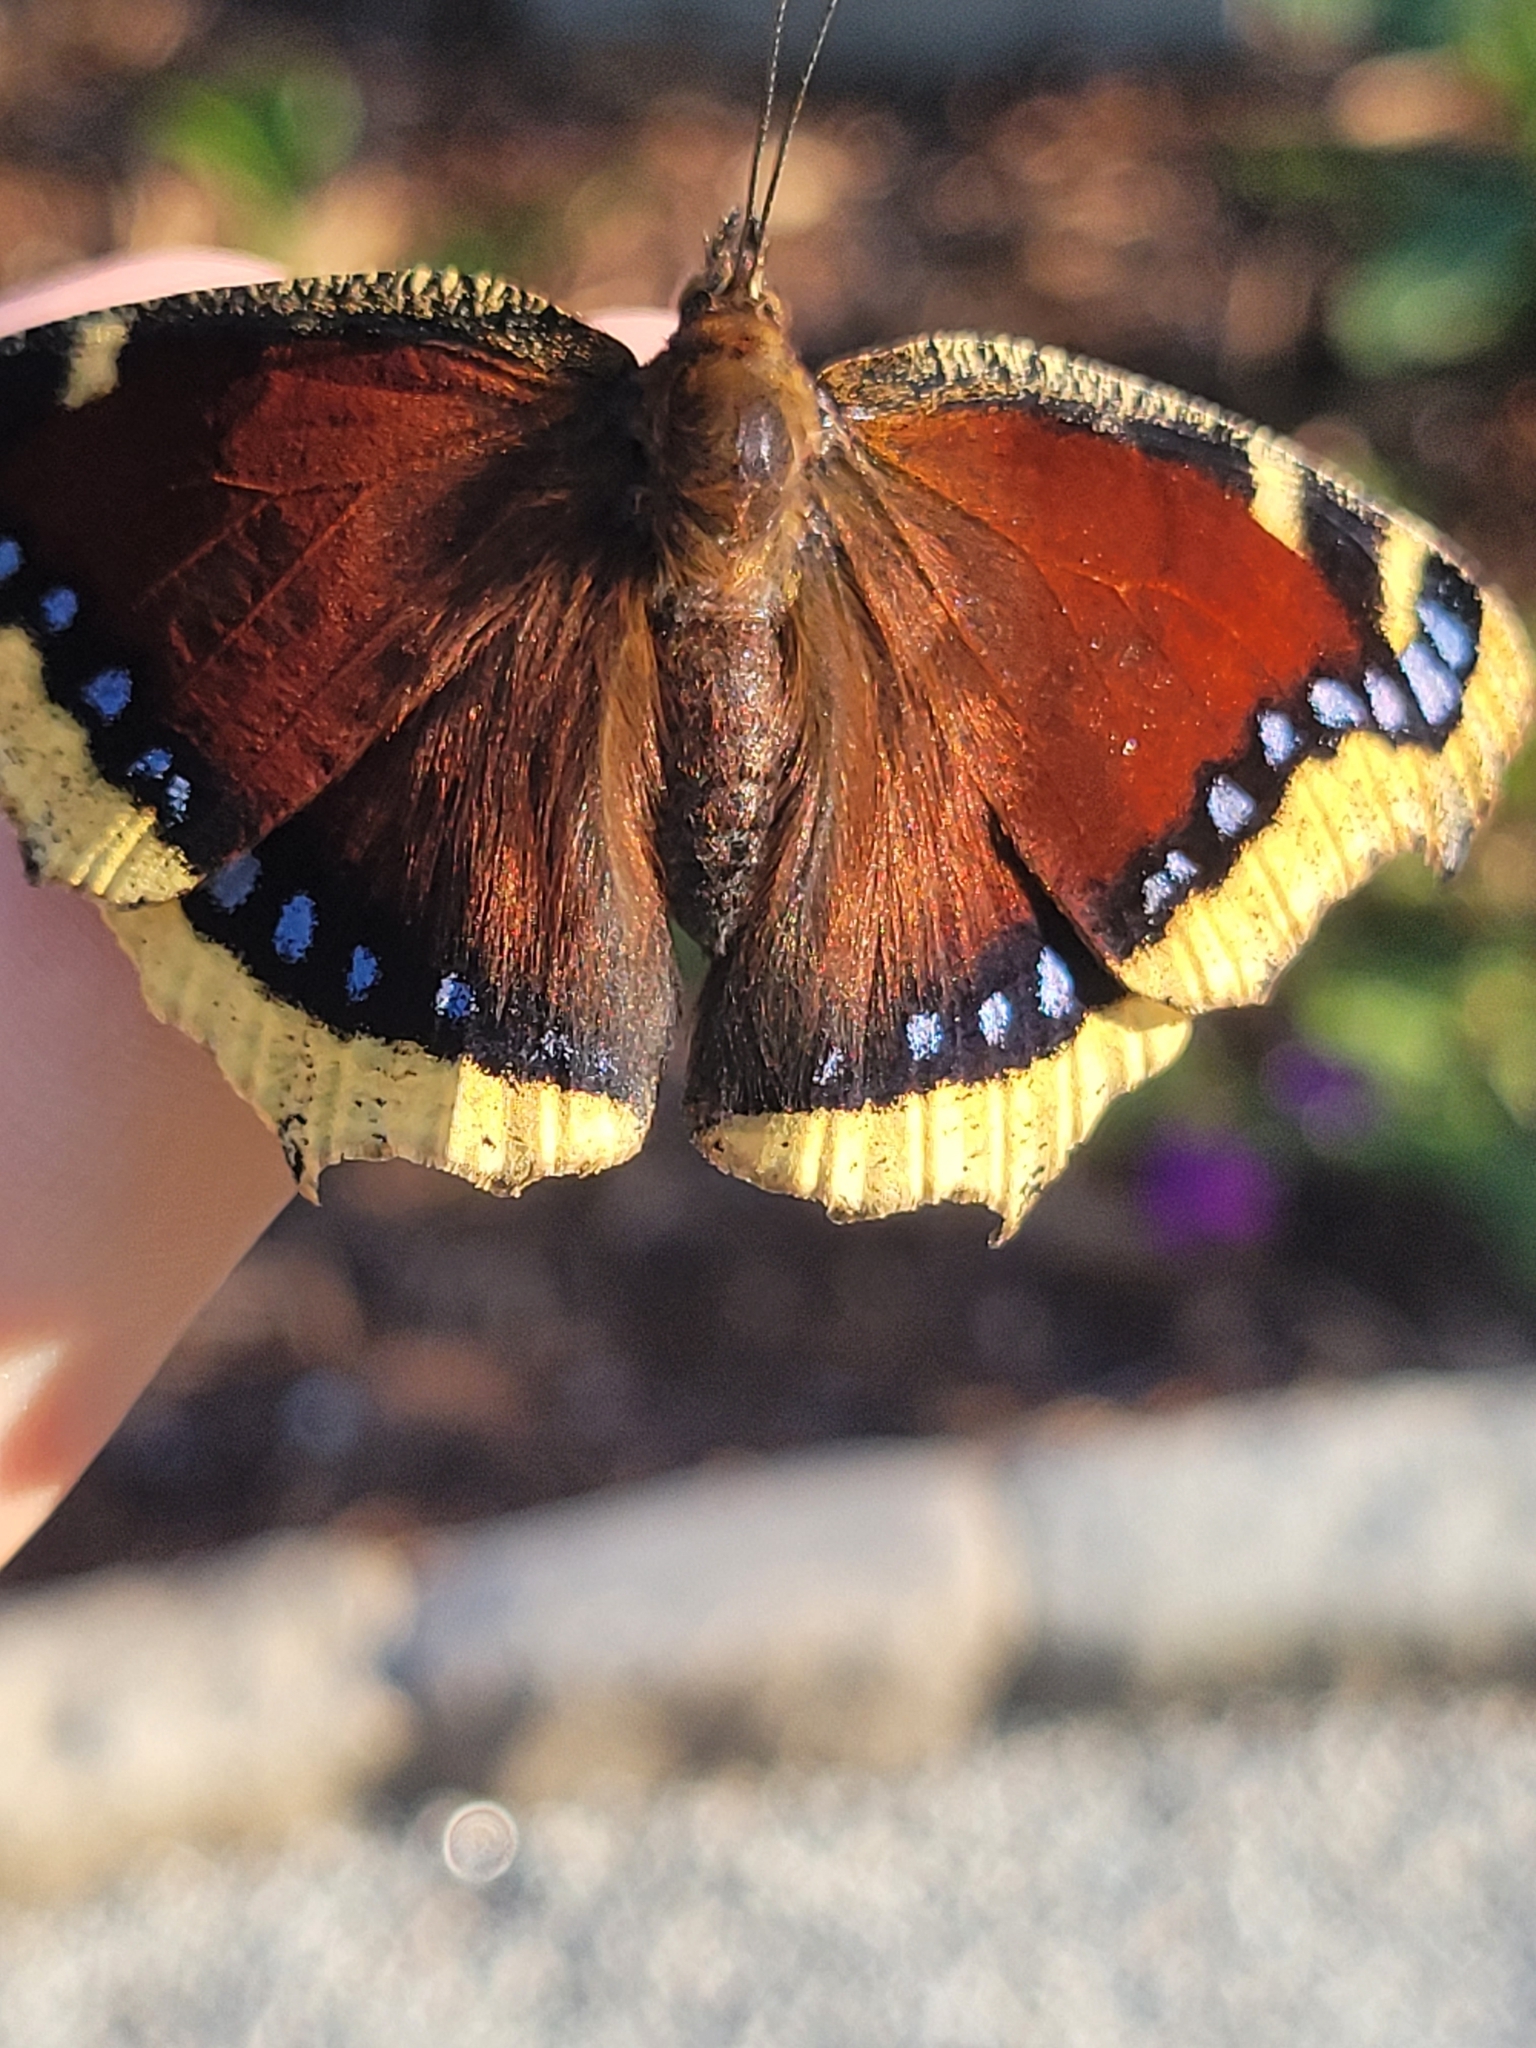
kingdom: Animalia
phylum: Arthropoda
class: Insecta
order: Lepidoptera
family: Nymphalidae
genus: Nymphalis
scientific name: Nymphalis antiopa
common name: Camberwell beauty
